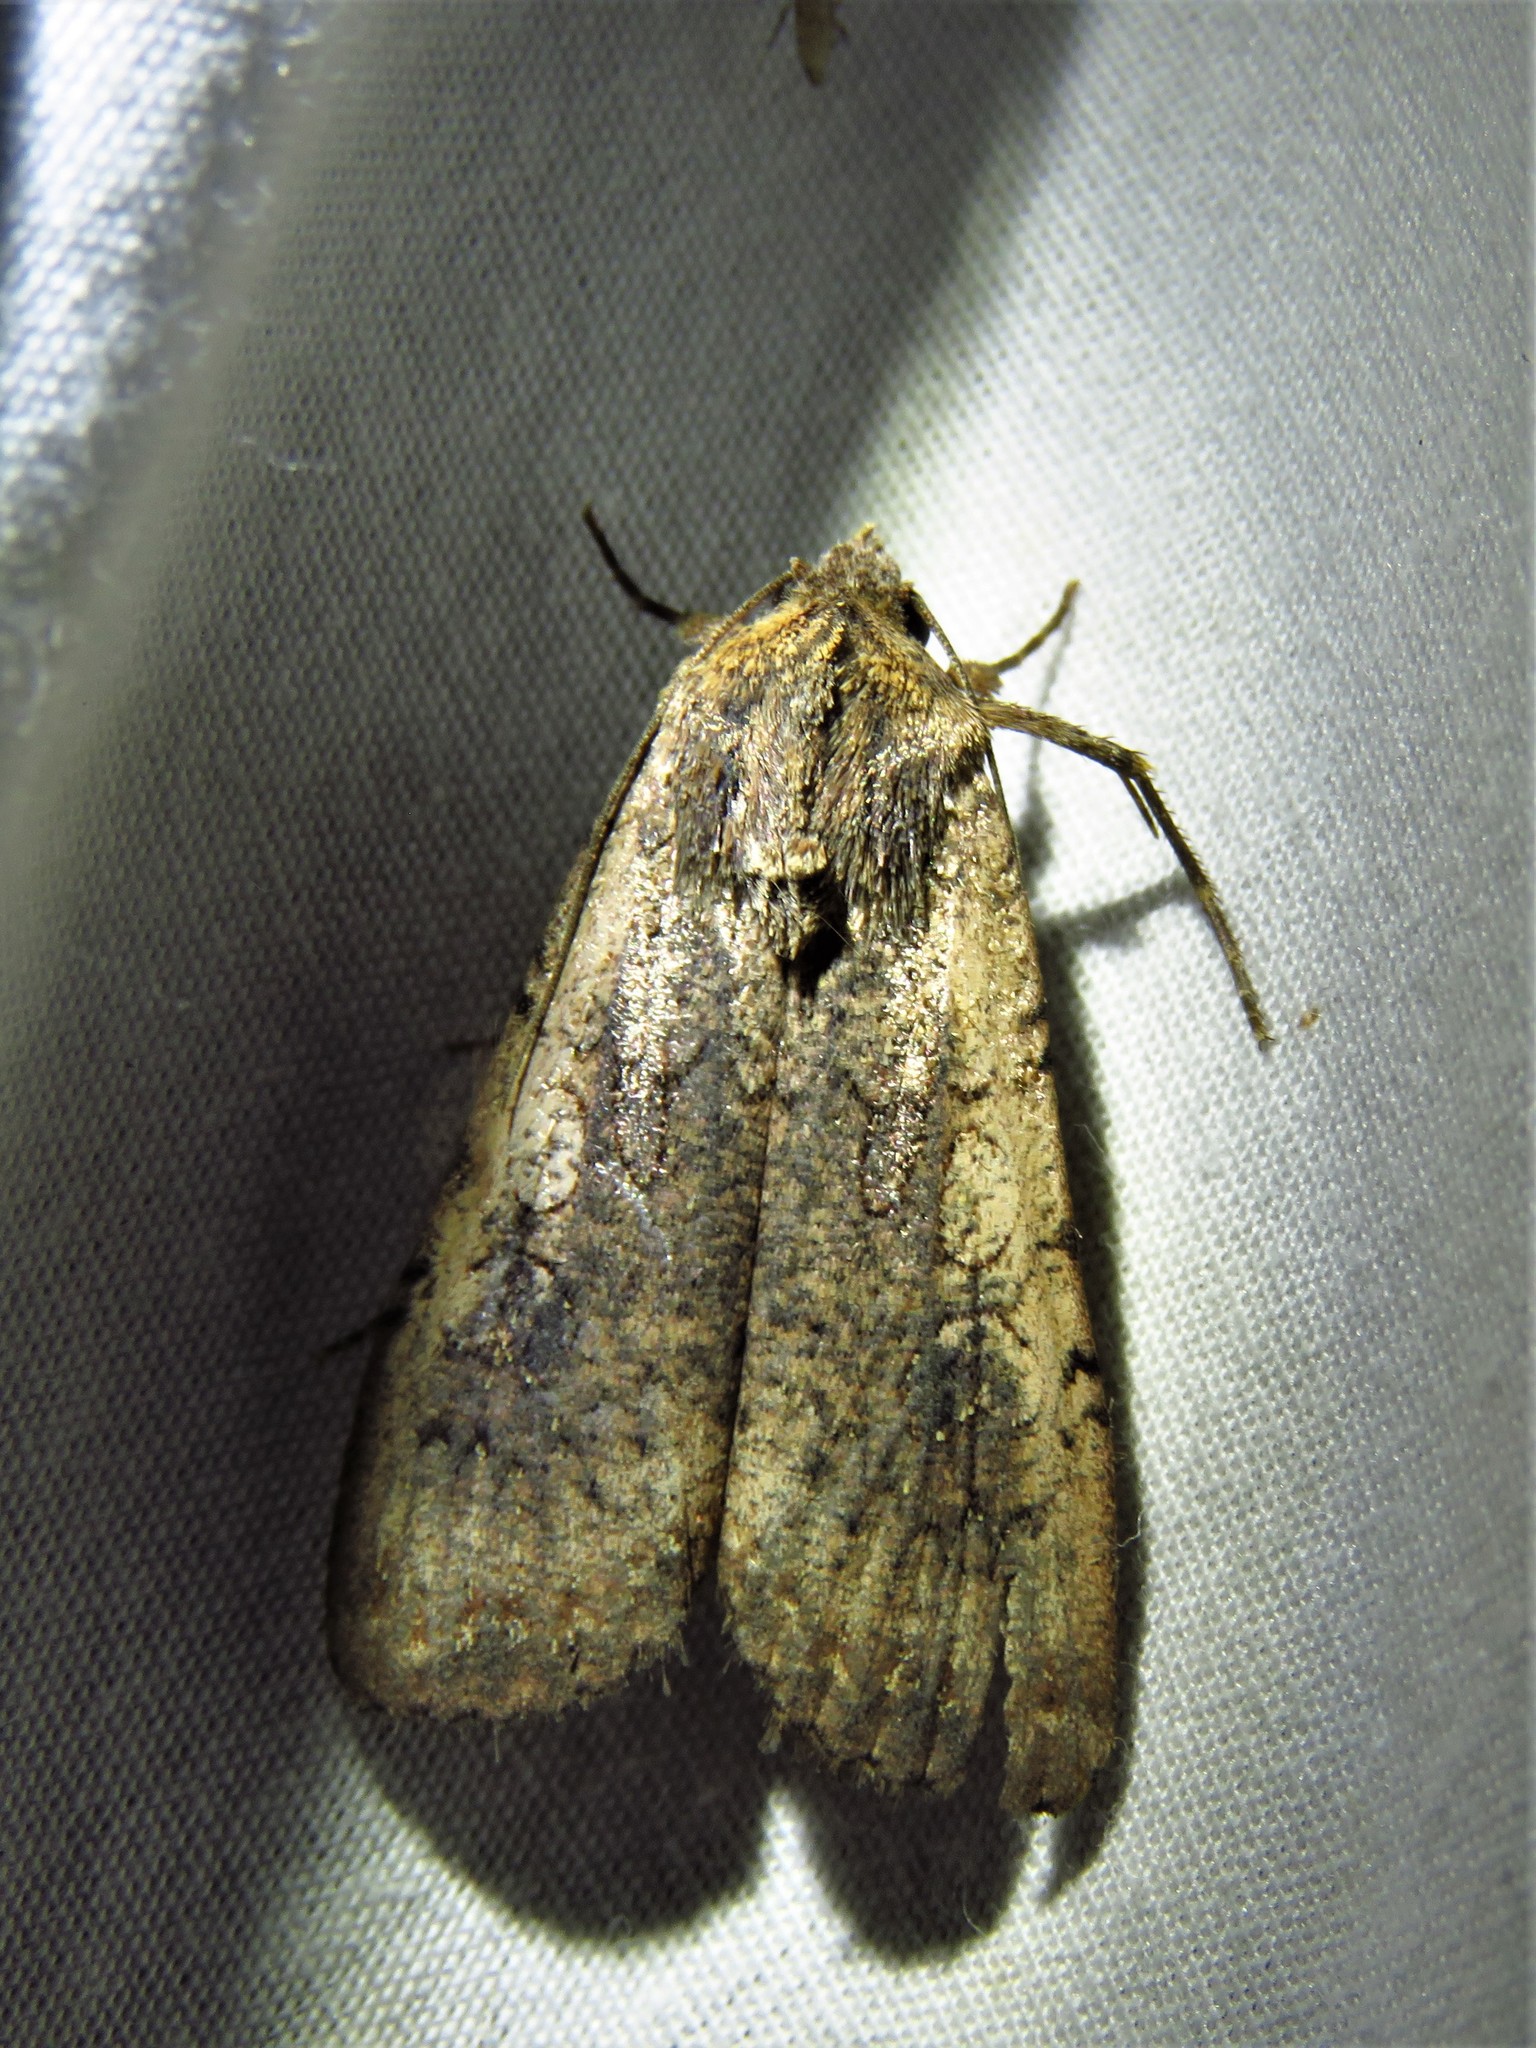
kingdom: Animalia
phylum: Arthropoda
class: Insecta
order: Lepidoptera
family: Noctuidae
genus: Peridroma
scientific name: Peridroma saucia
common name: Pearly underwing
